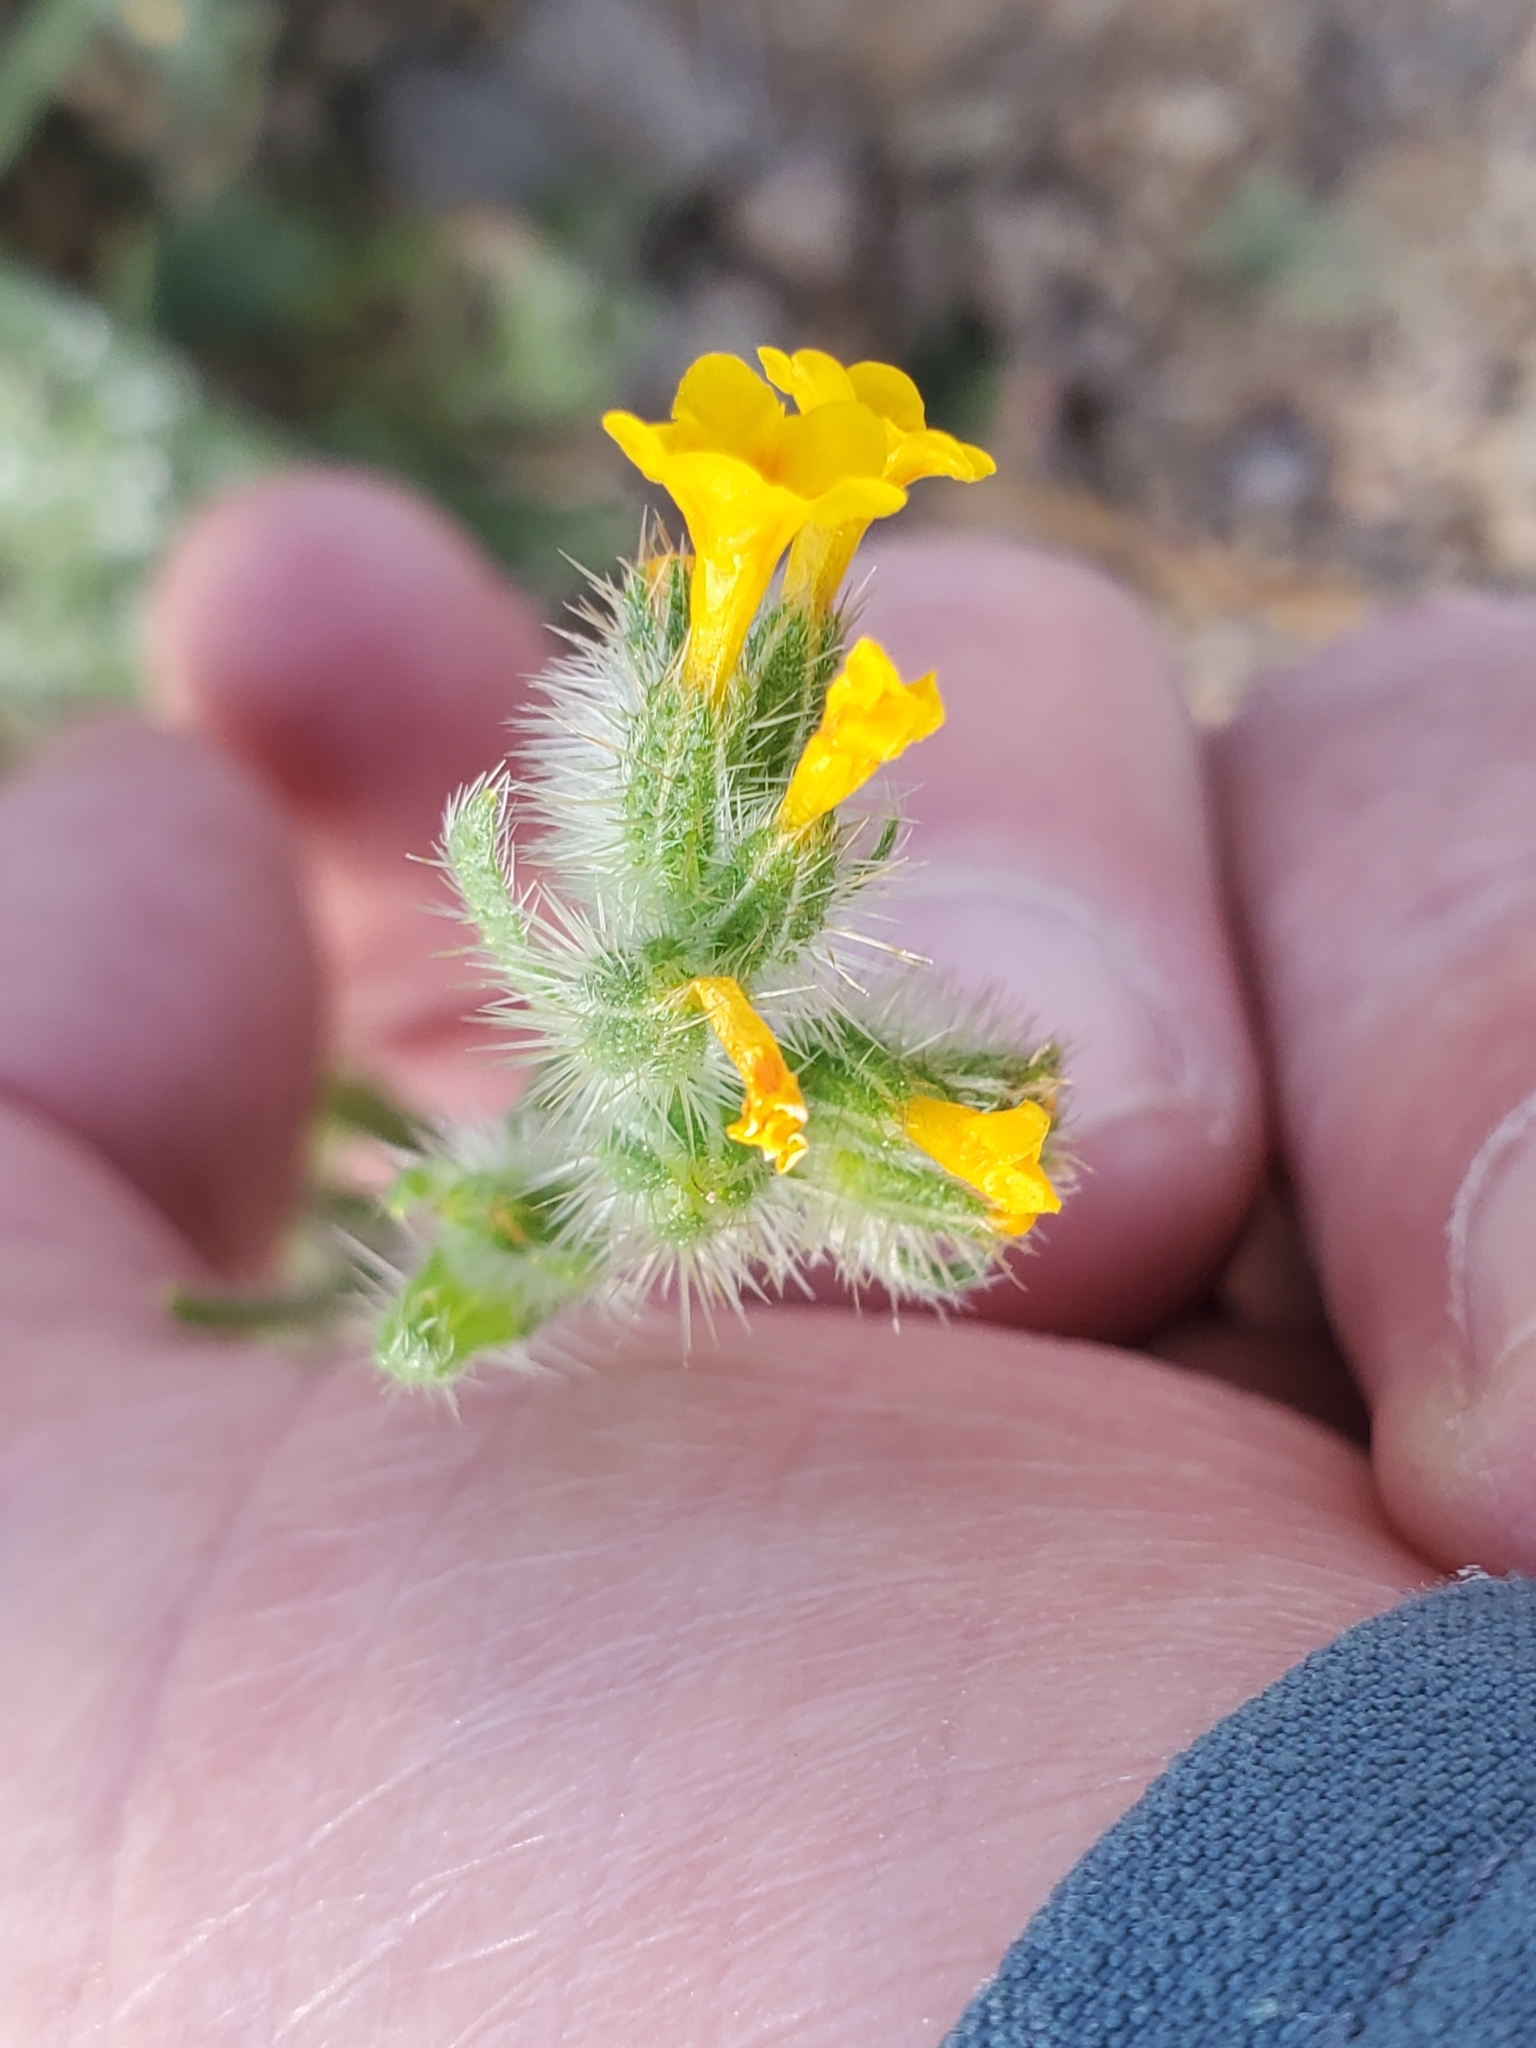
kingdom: Plantae
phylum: Tracheophyta
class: Magnoliopsida
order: Boraginales
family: Boraginaceae
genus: Amsinckia
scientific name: Amsinckia tessellata
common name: Tessellate fiddleneck
